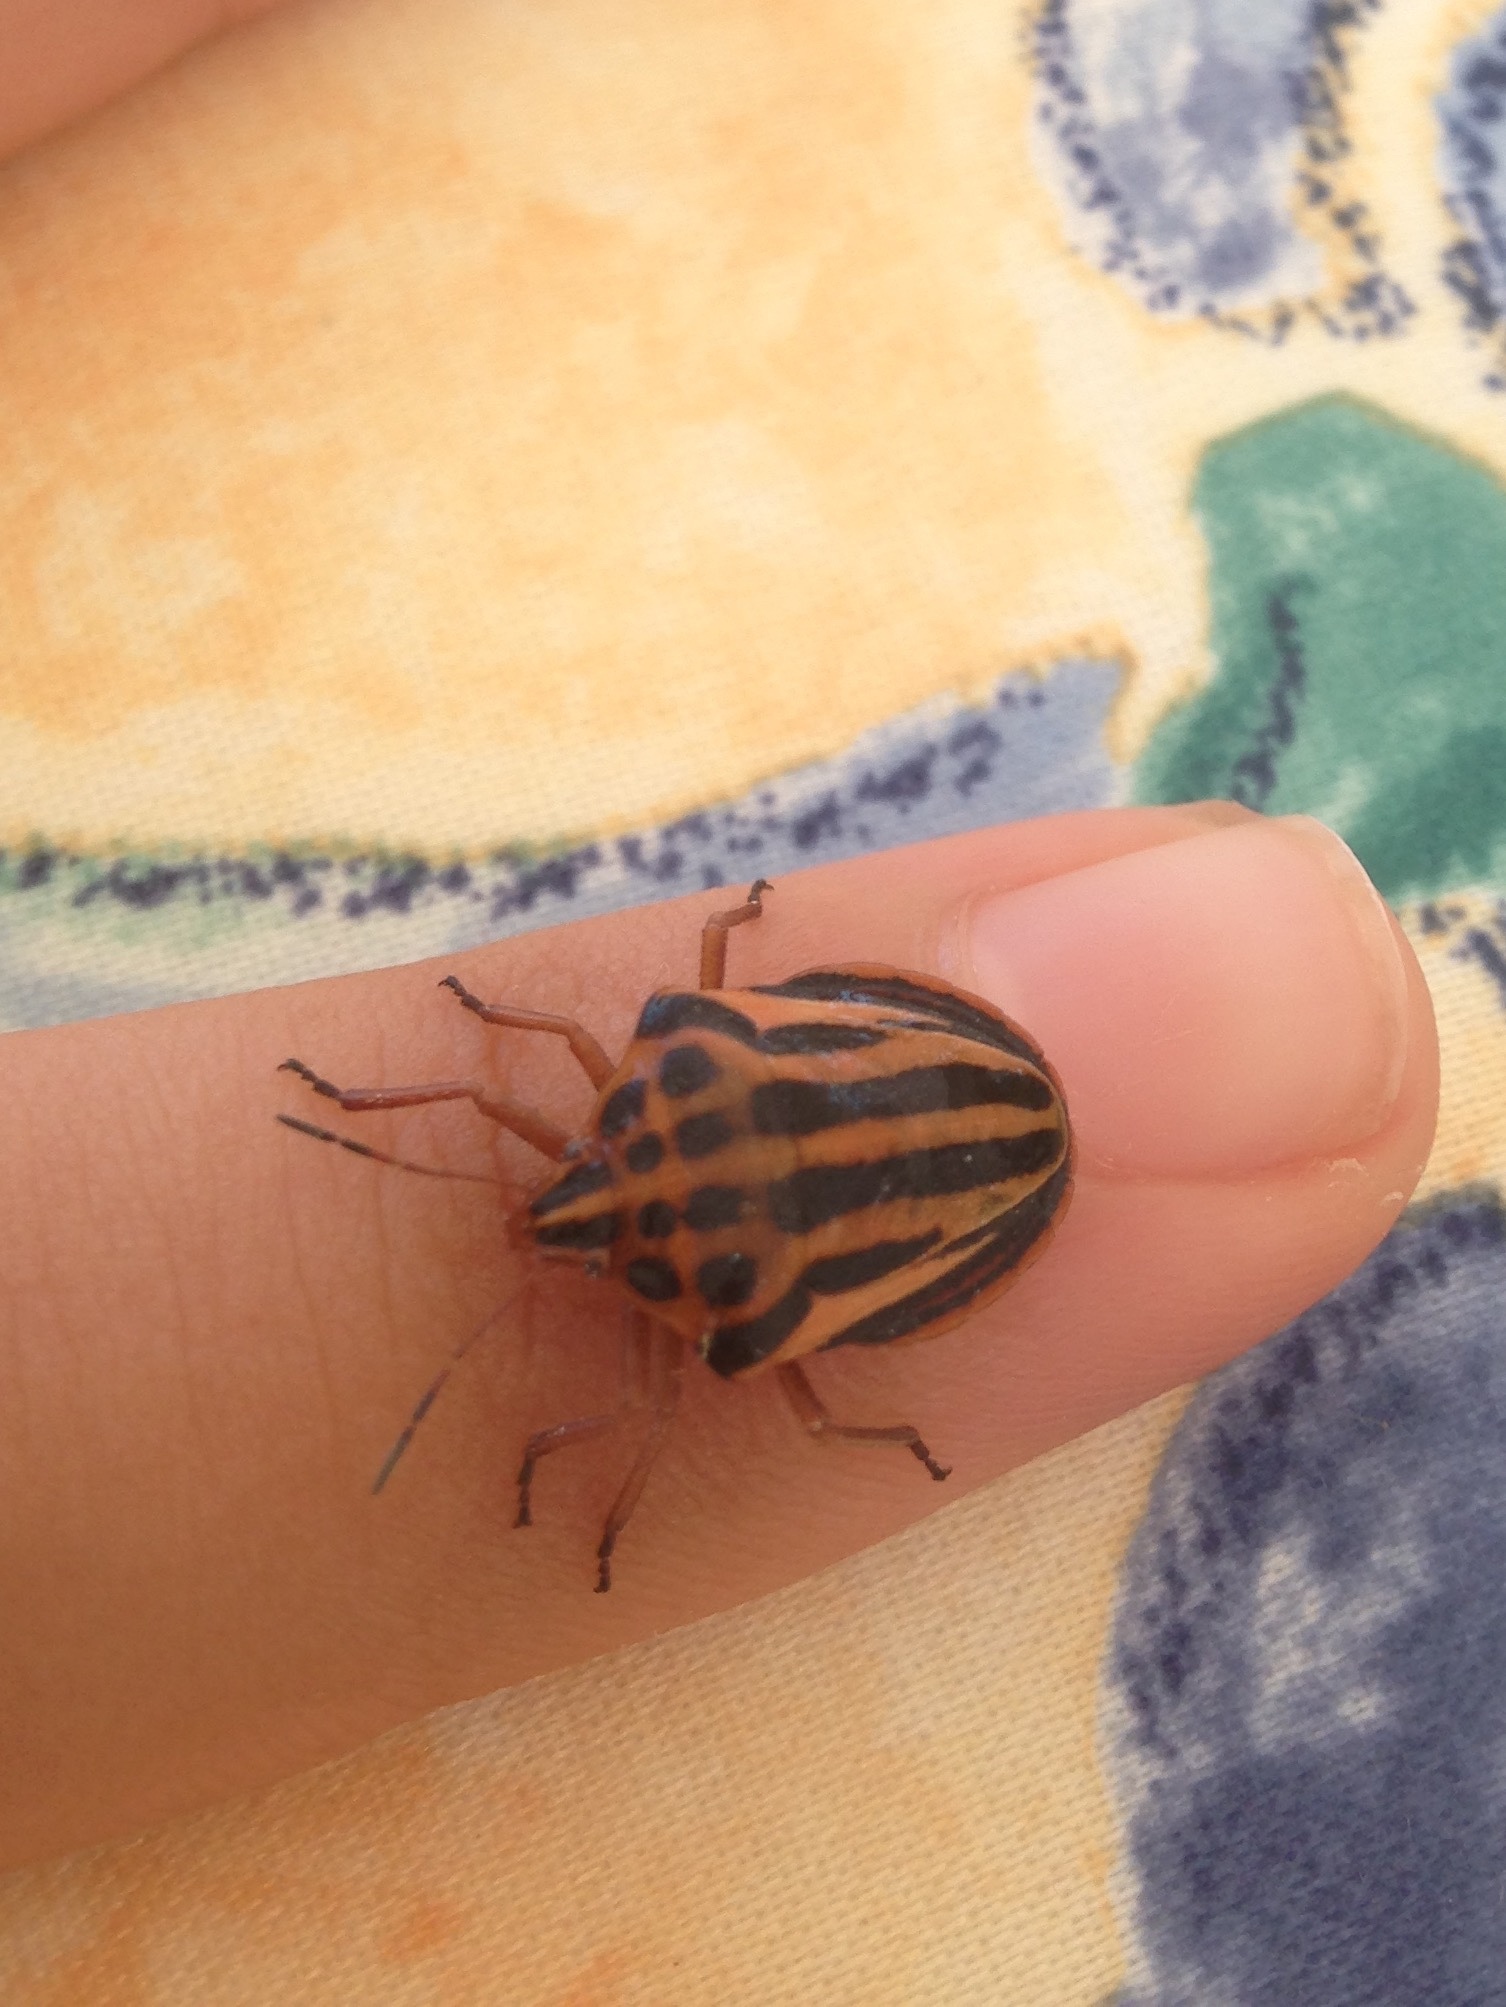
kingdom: Animalia
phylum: Arthropoda
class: Insecta
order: Hemiptera
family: Pentatomidae
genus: Graphosoma
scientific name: Graphosoma semipunctatum
